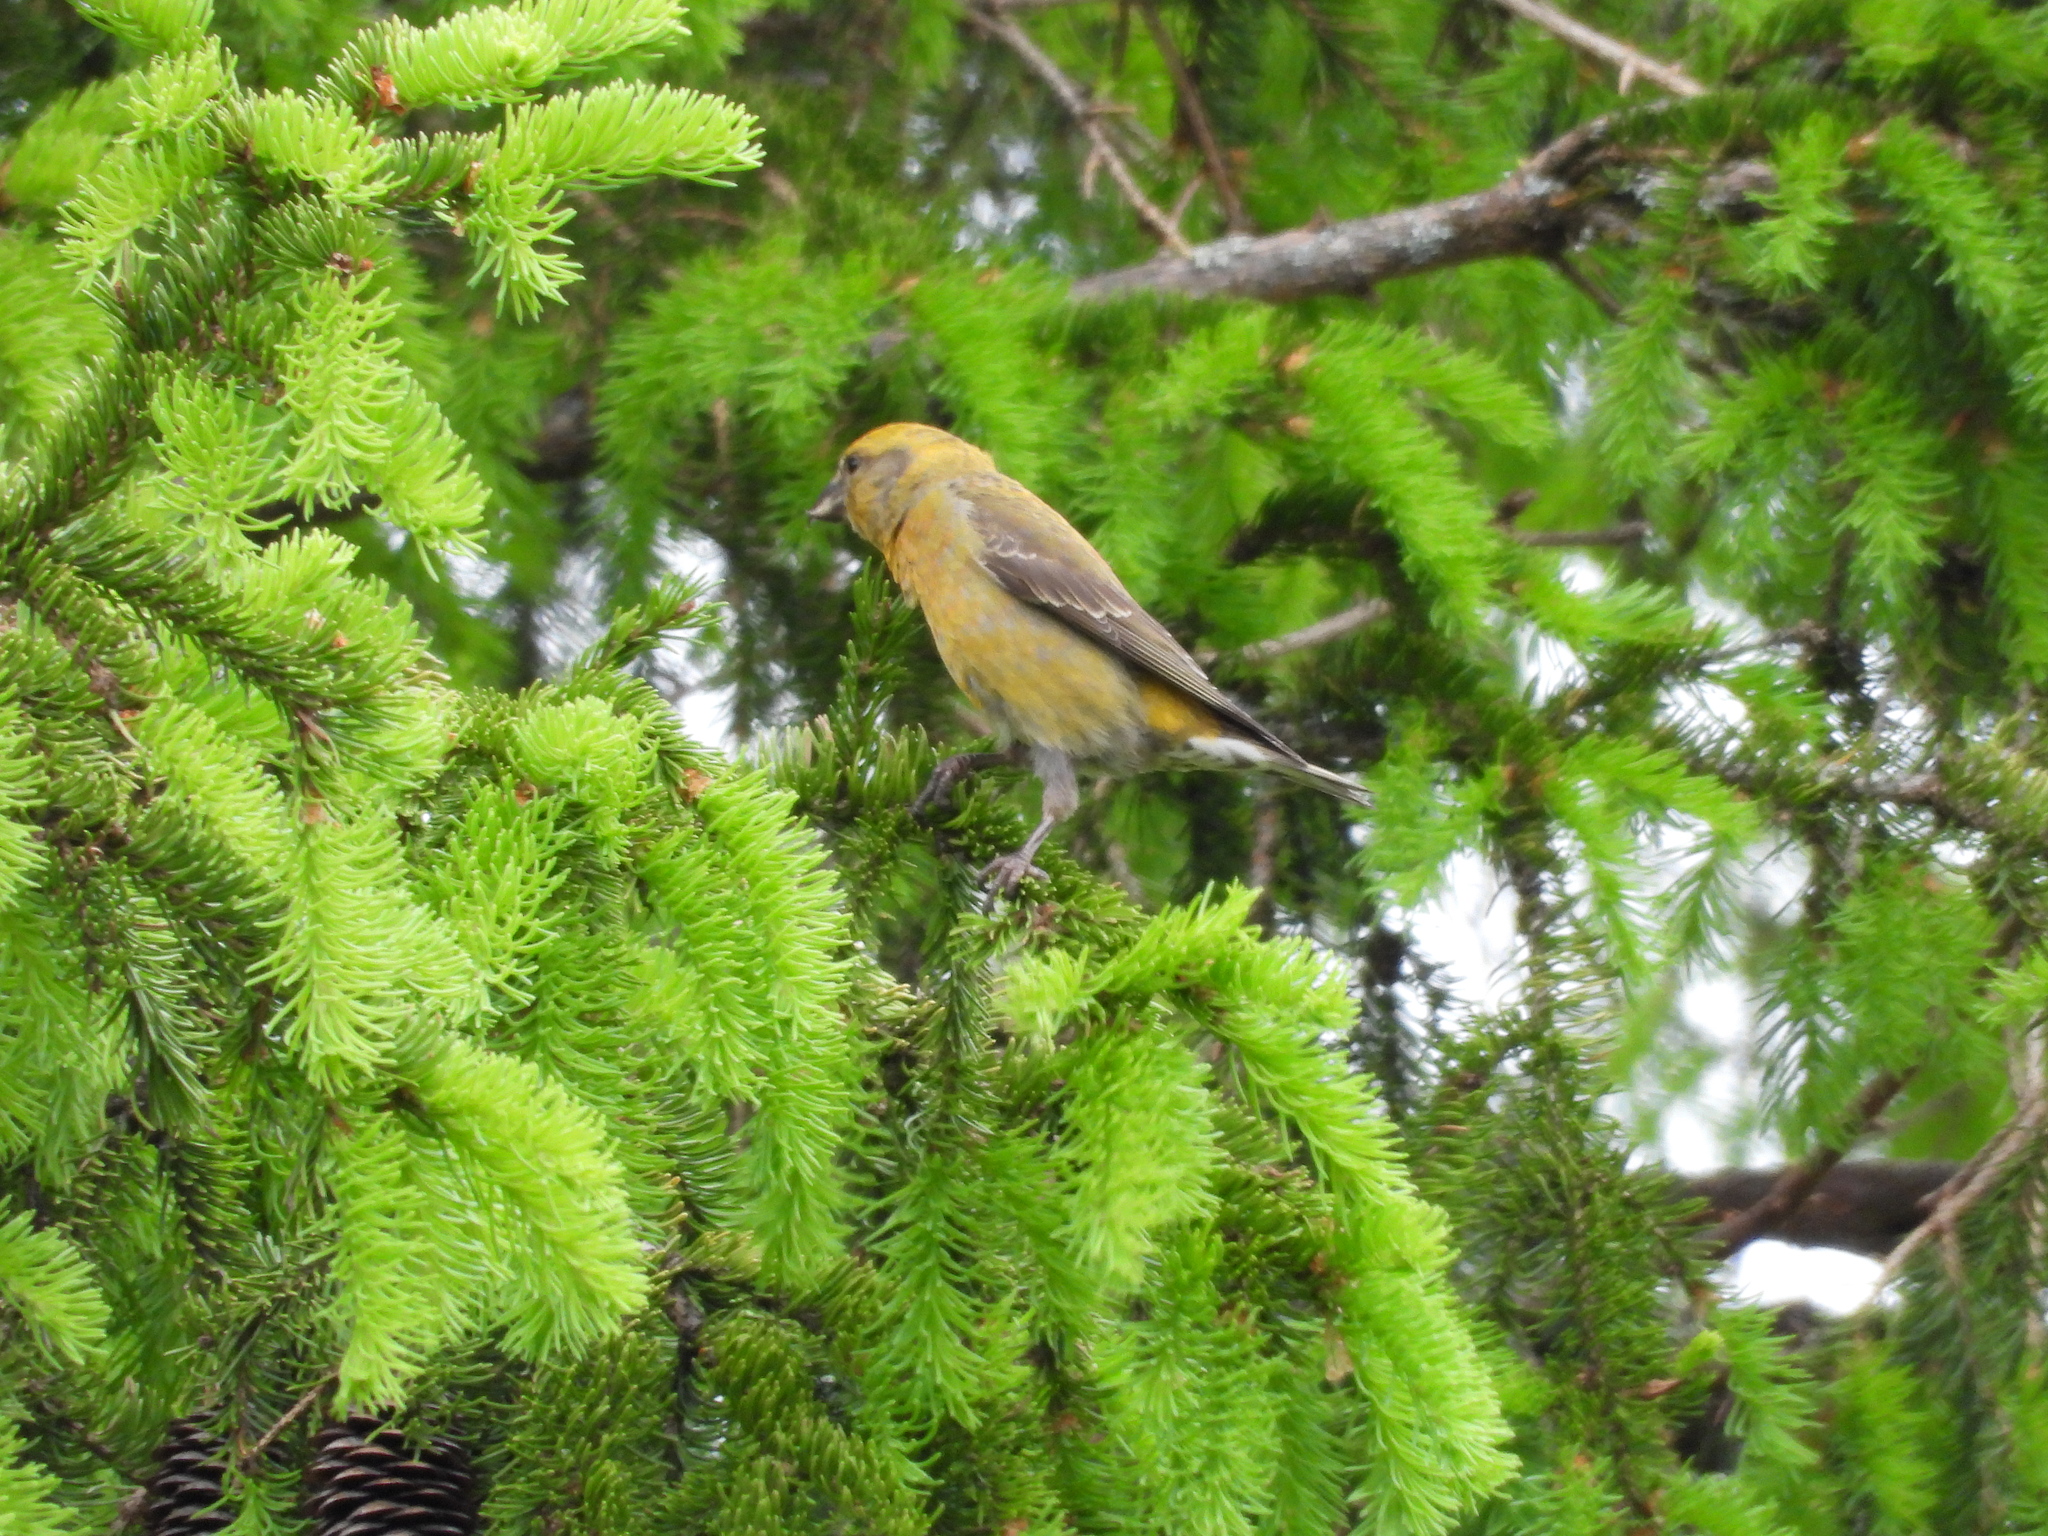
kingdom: Animalia
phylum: Chordata
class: Aves
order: Passeriformes
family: Fringillidae
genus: Loxia
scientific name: Loxia curvirostra
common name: Red crossbill
